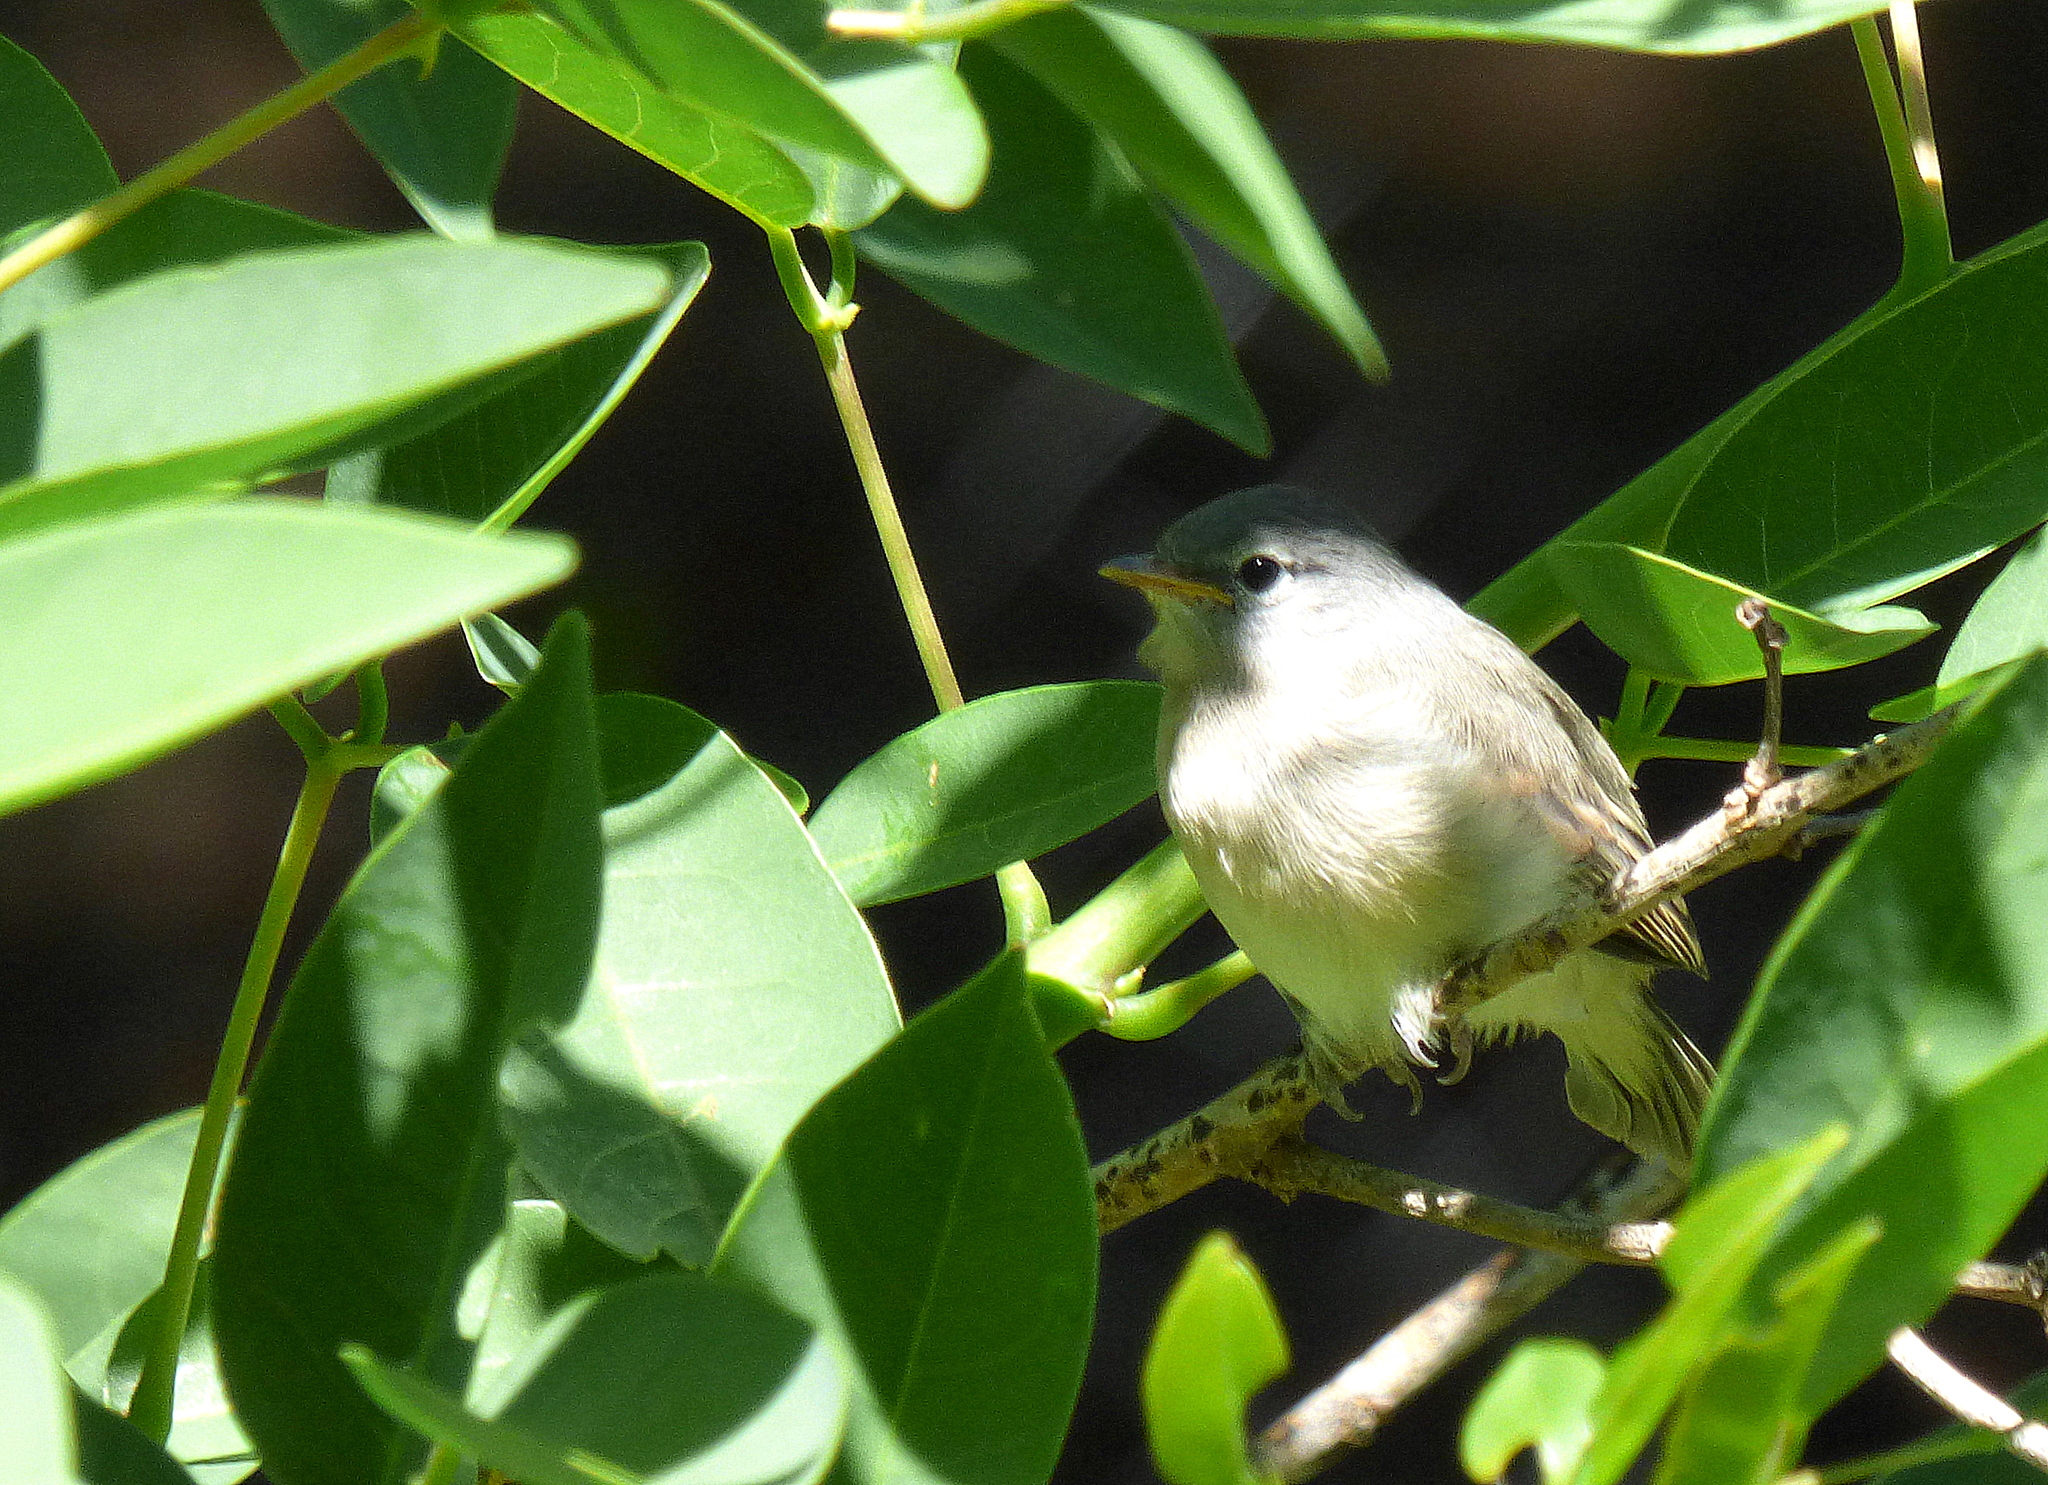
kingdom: Animalia
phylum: Chordata
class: Aves
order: Passeriformes
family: Tyrannidae
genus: Camptostoma
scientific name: Camptostoma obsoletum
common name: Southern beardless-tyrannulet
